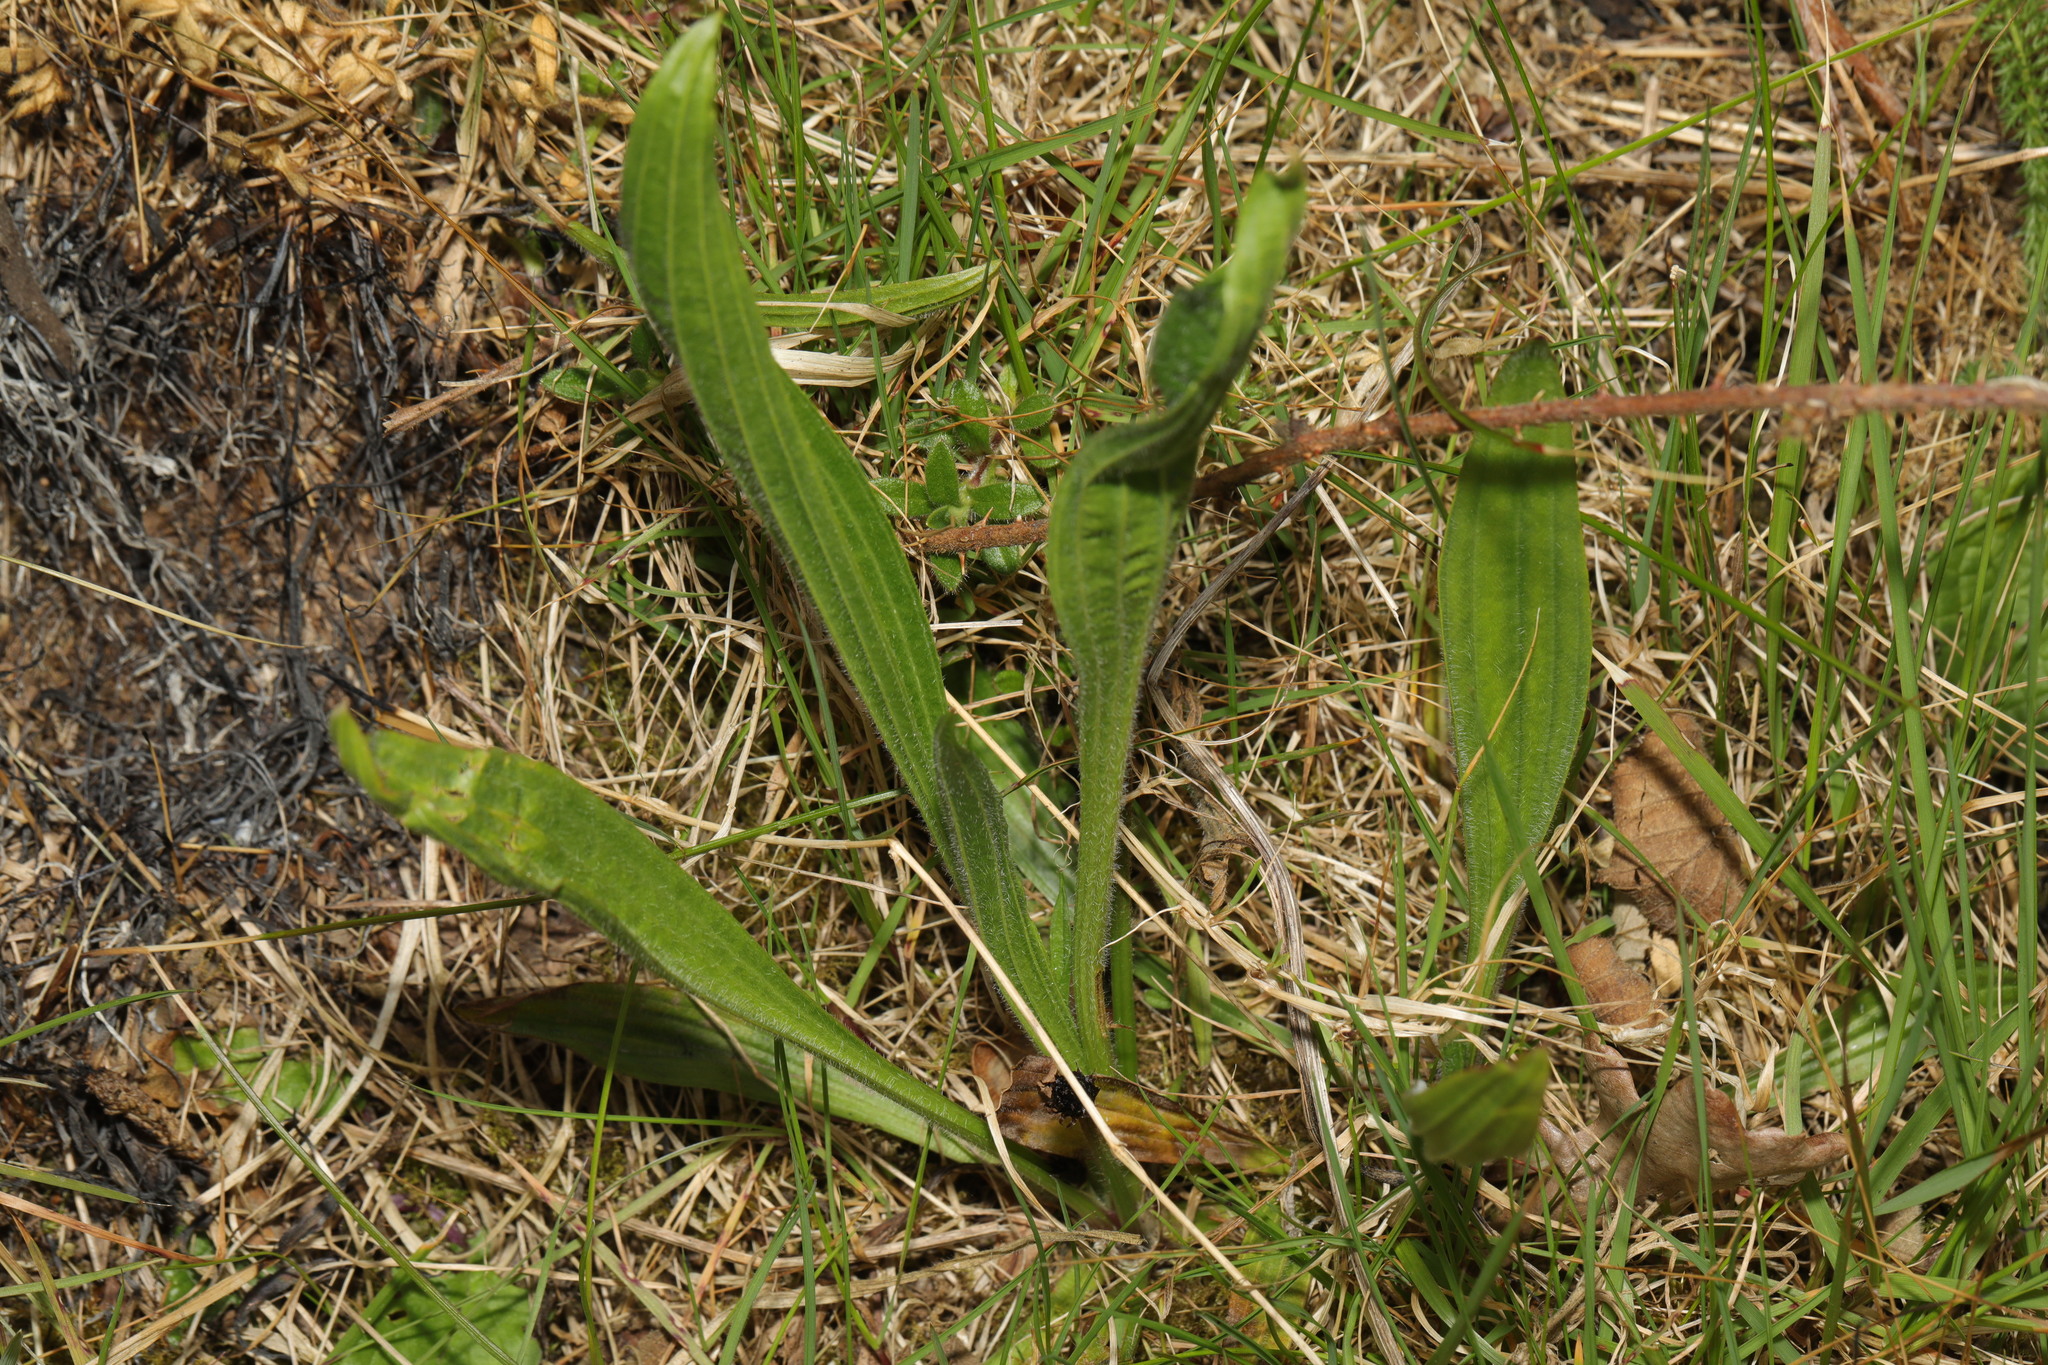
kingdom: Plantae
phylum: Tracheophyta
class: Magnoliopsida
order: Lamiales
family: Plantaginaceae
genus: Plantago
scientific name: Plantago lanceolata
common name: Ribwort plantain
